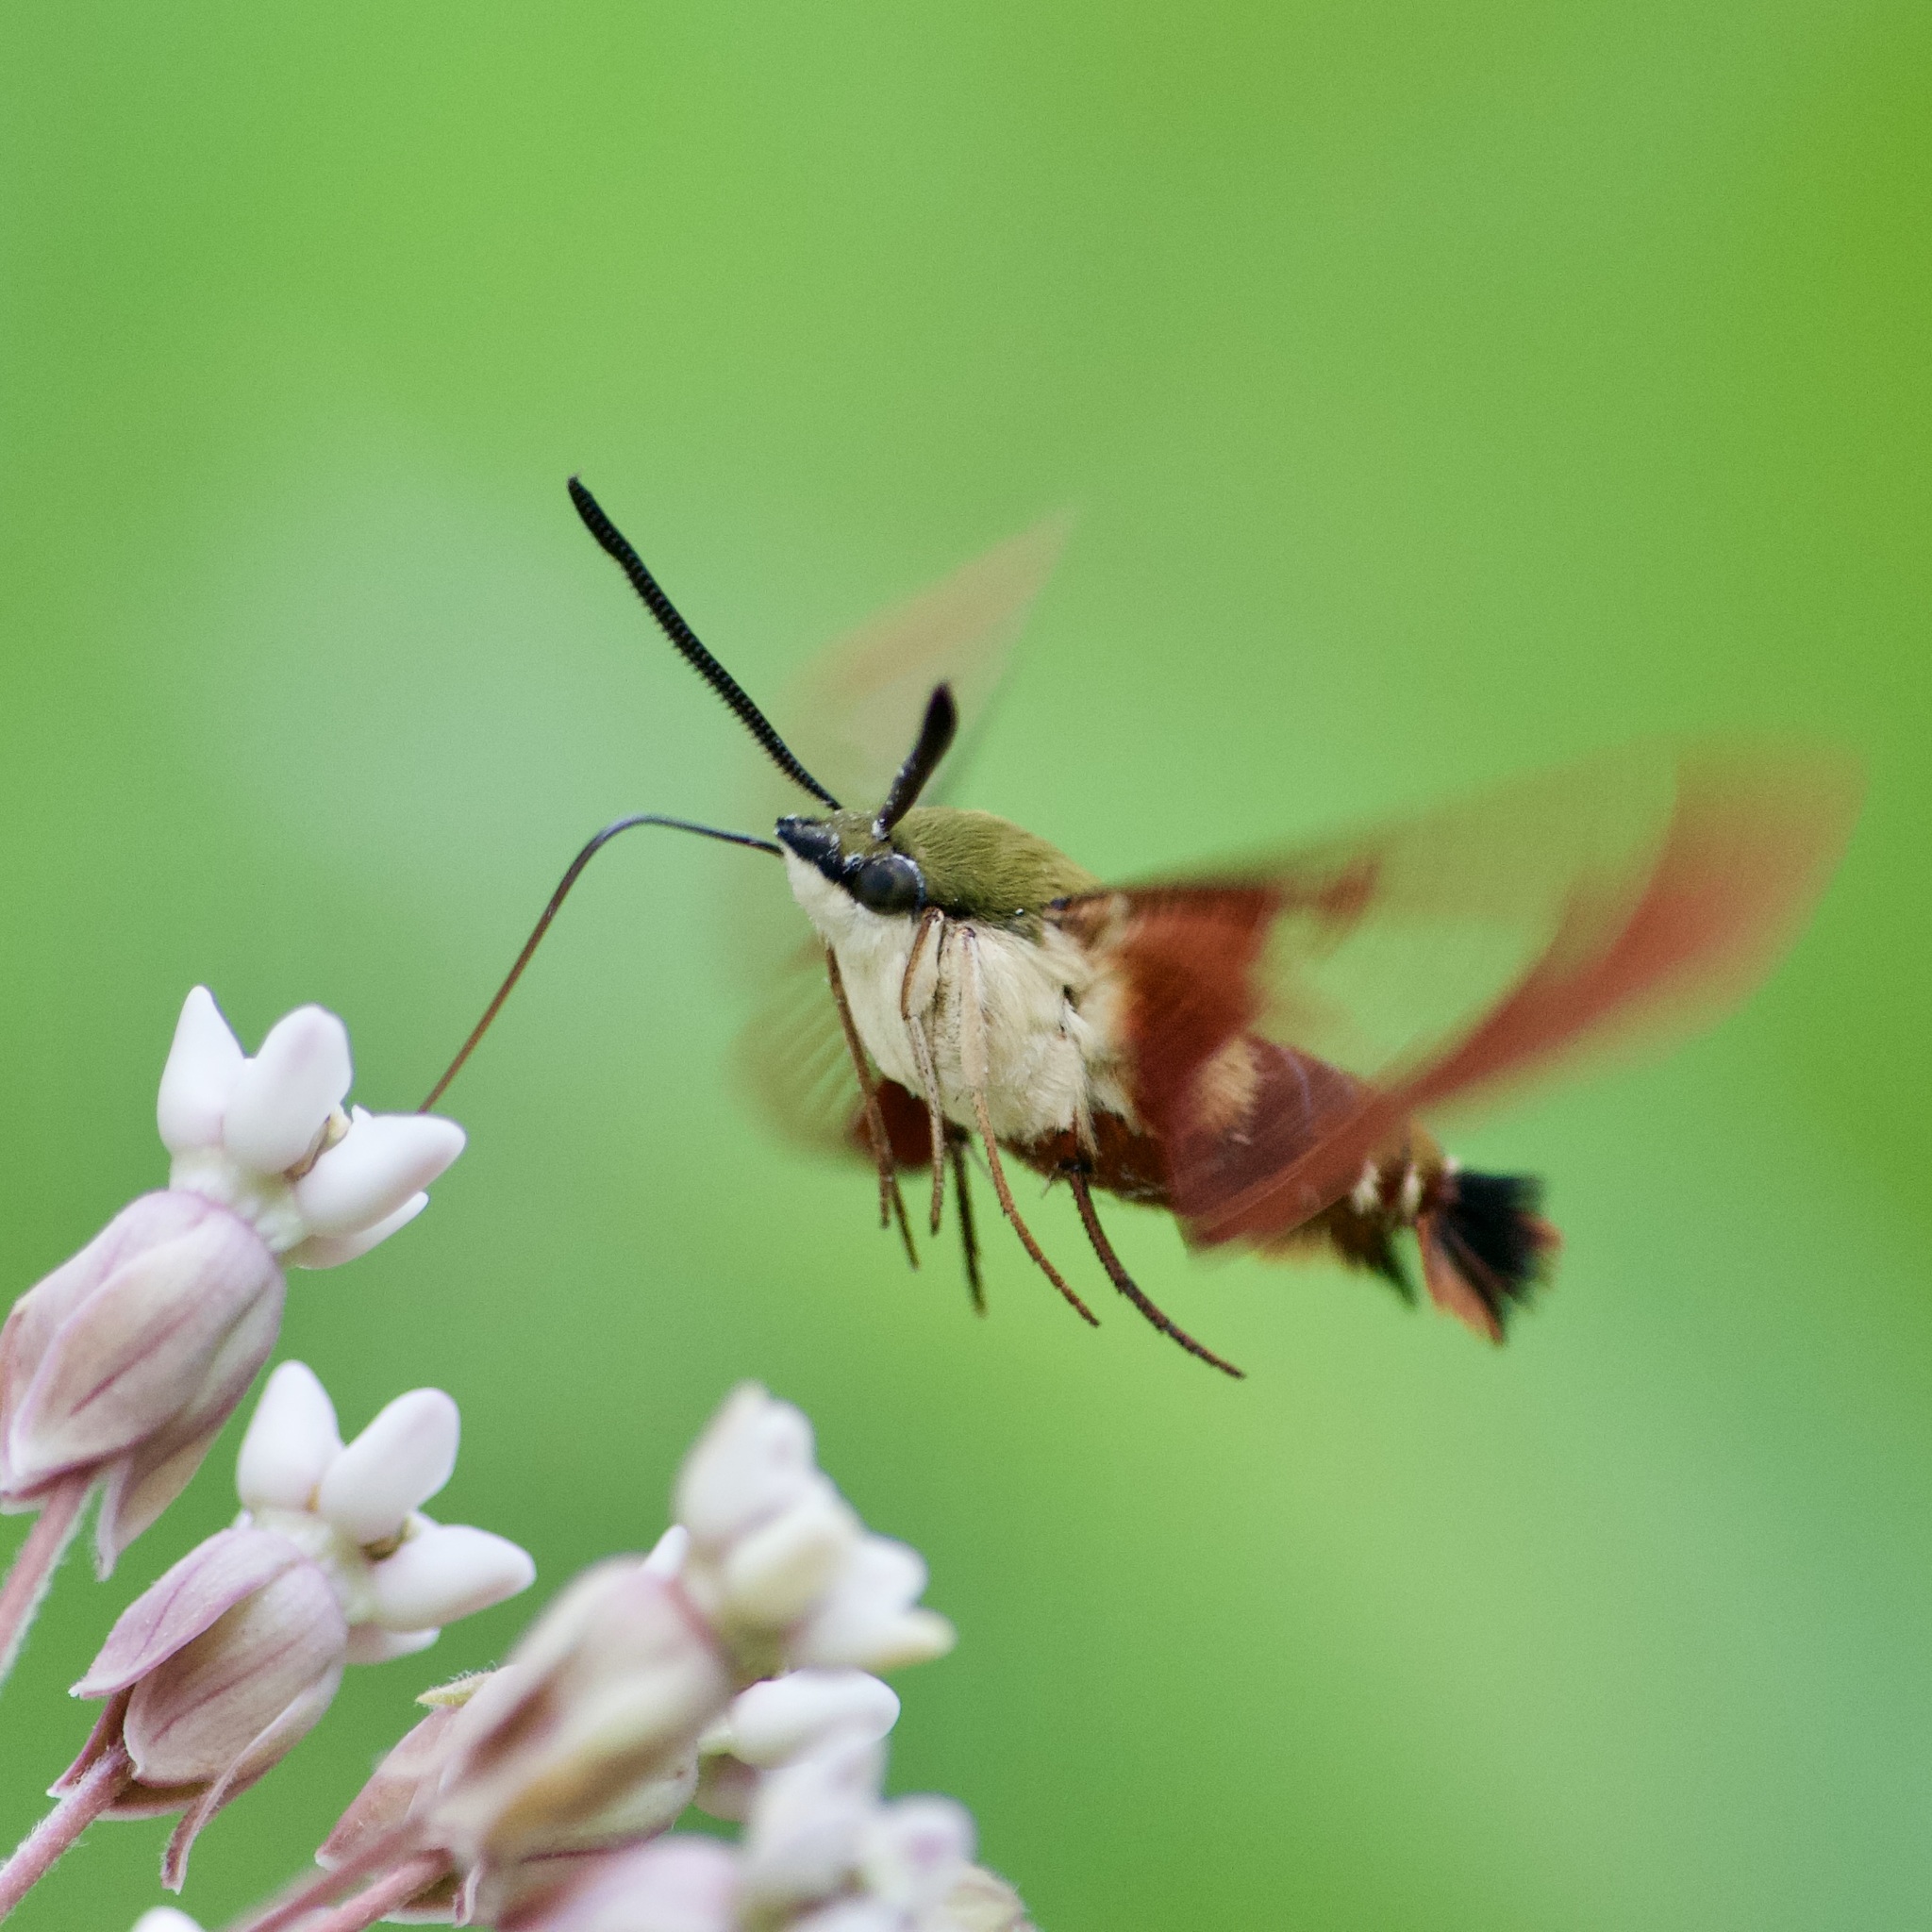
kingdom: Animalia
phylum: Arthropoda
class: Insecta
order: Lepidoptera
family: Sphingidae
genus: Hemaris
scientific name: Hemaris thysbe
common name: Common clear-wing
